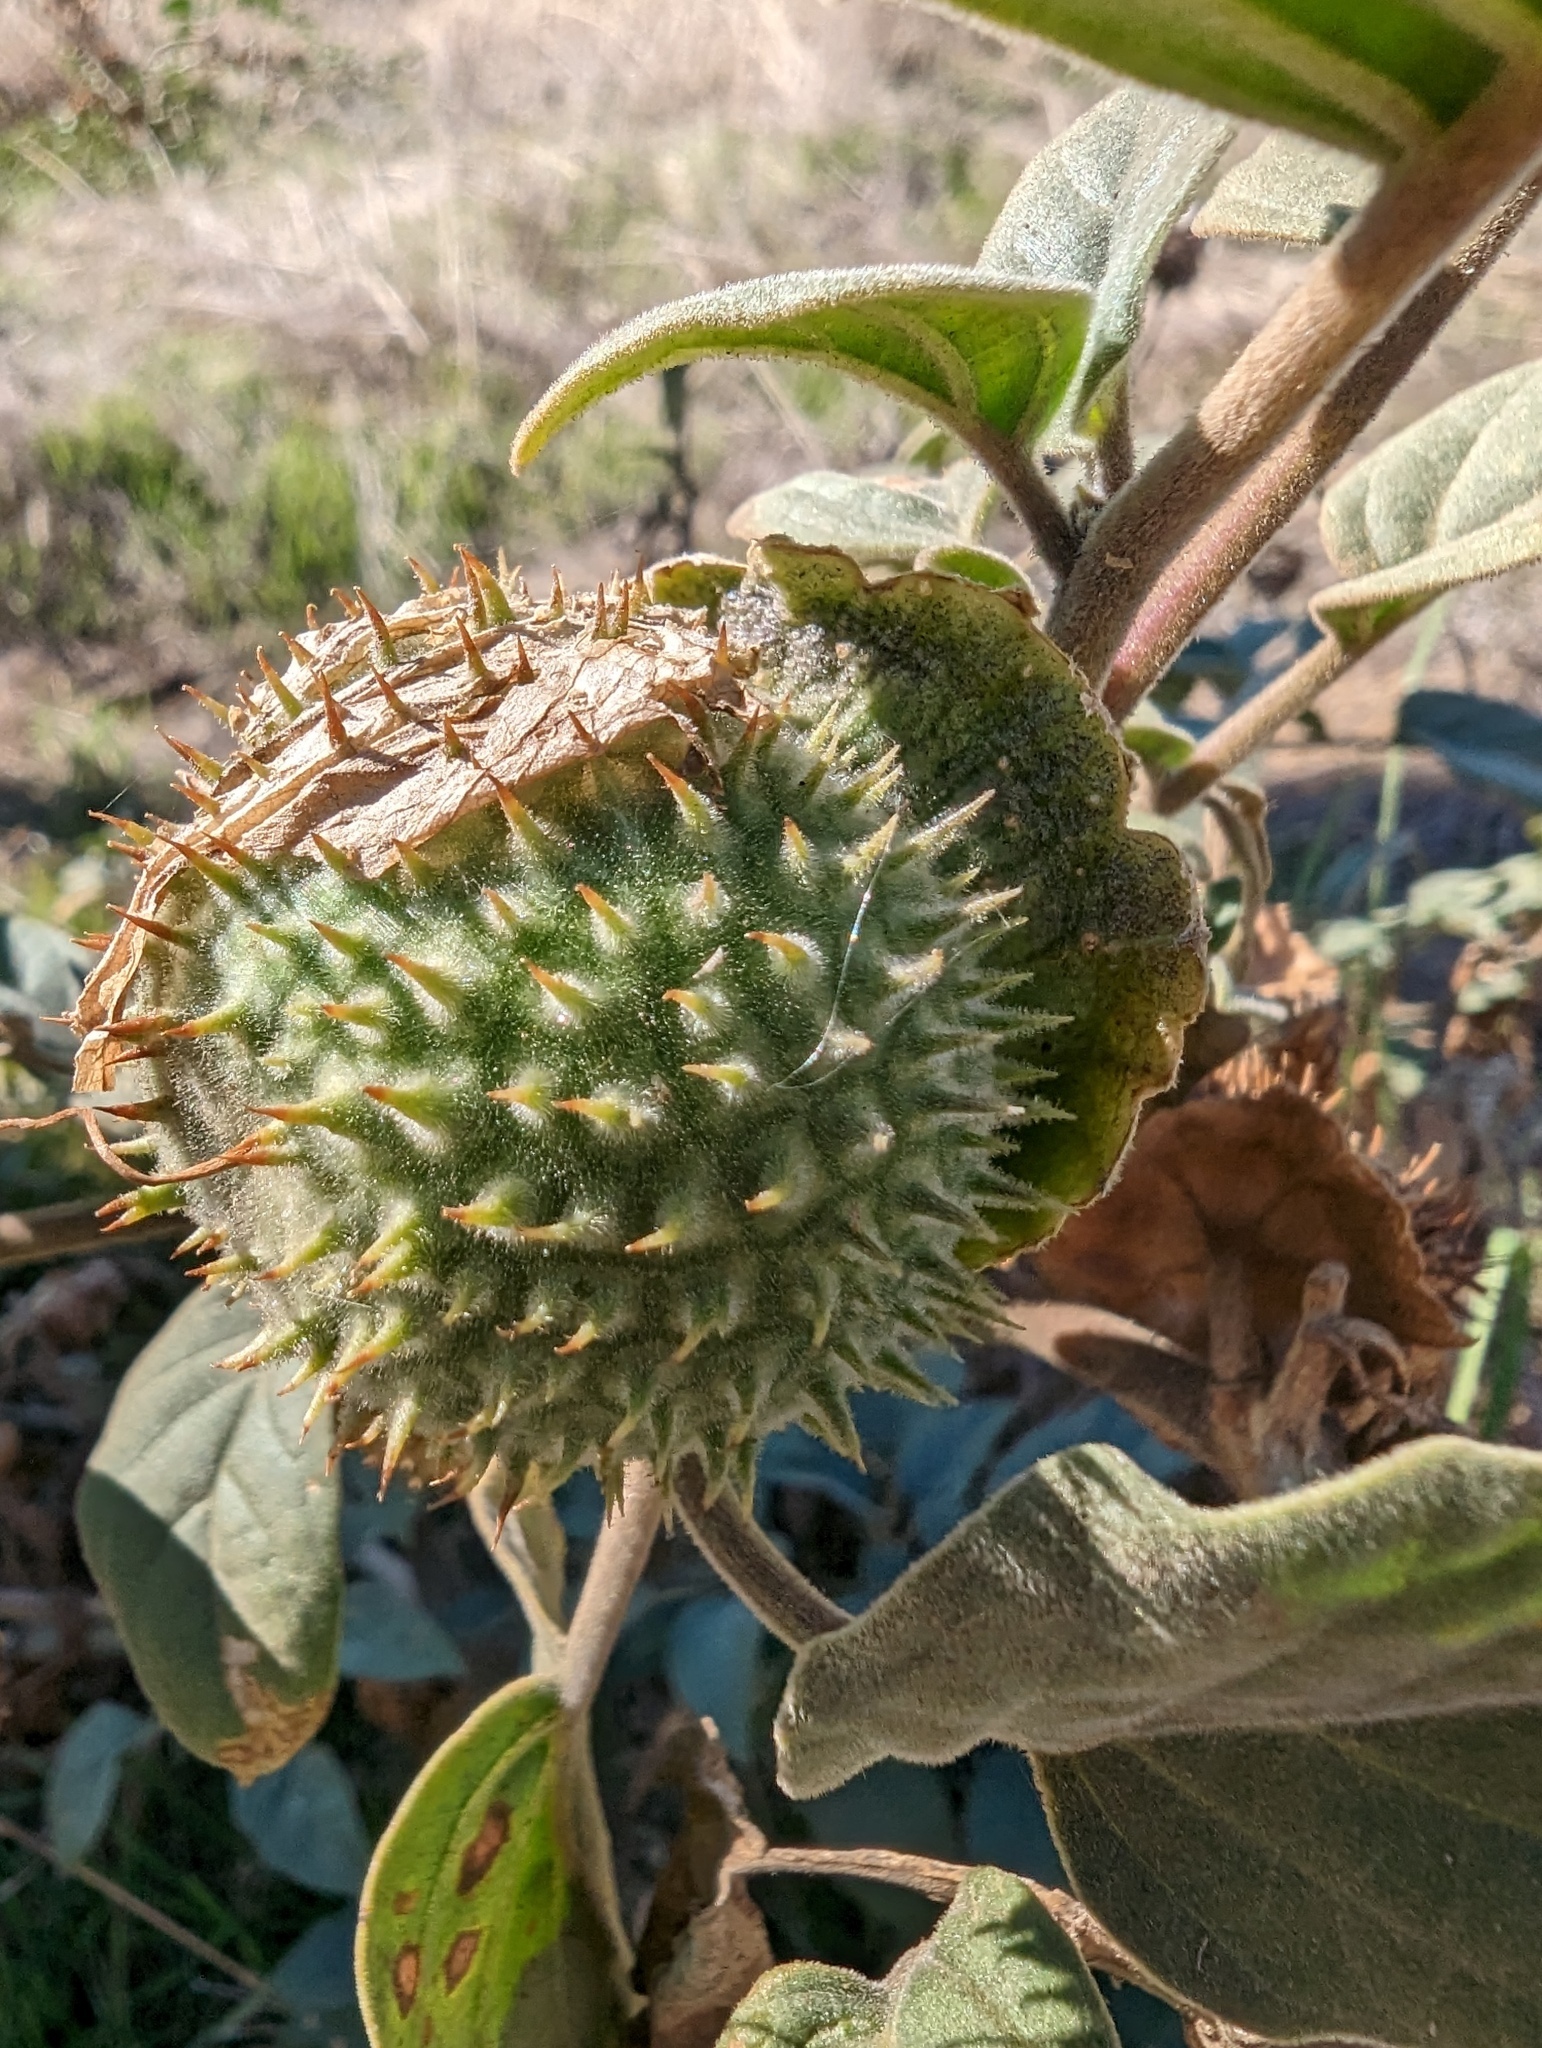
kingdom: Plantae
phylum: Tracheophyta
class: Magnoliopsida
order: Solanales
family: Solanaceae
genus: Datura
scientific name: Datura wrightii
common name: Sacred thorn-apple
